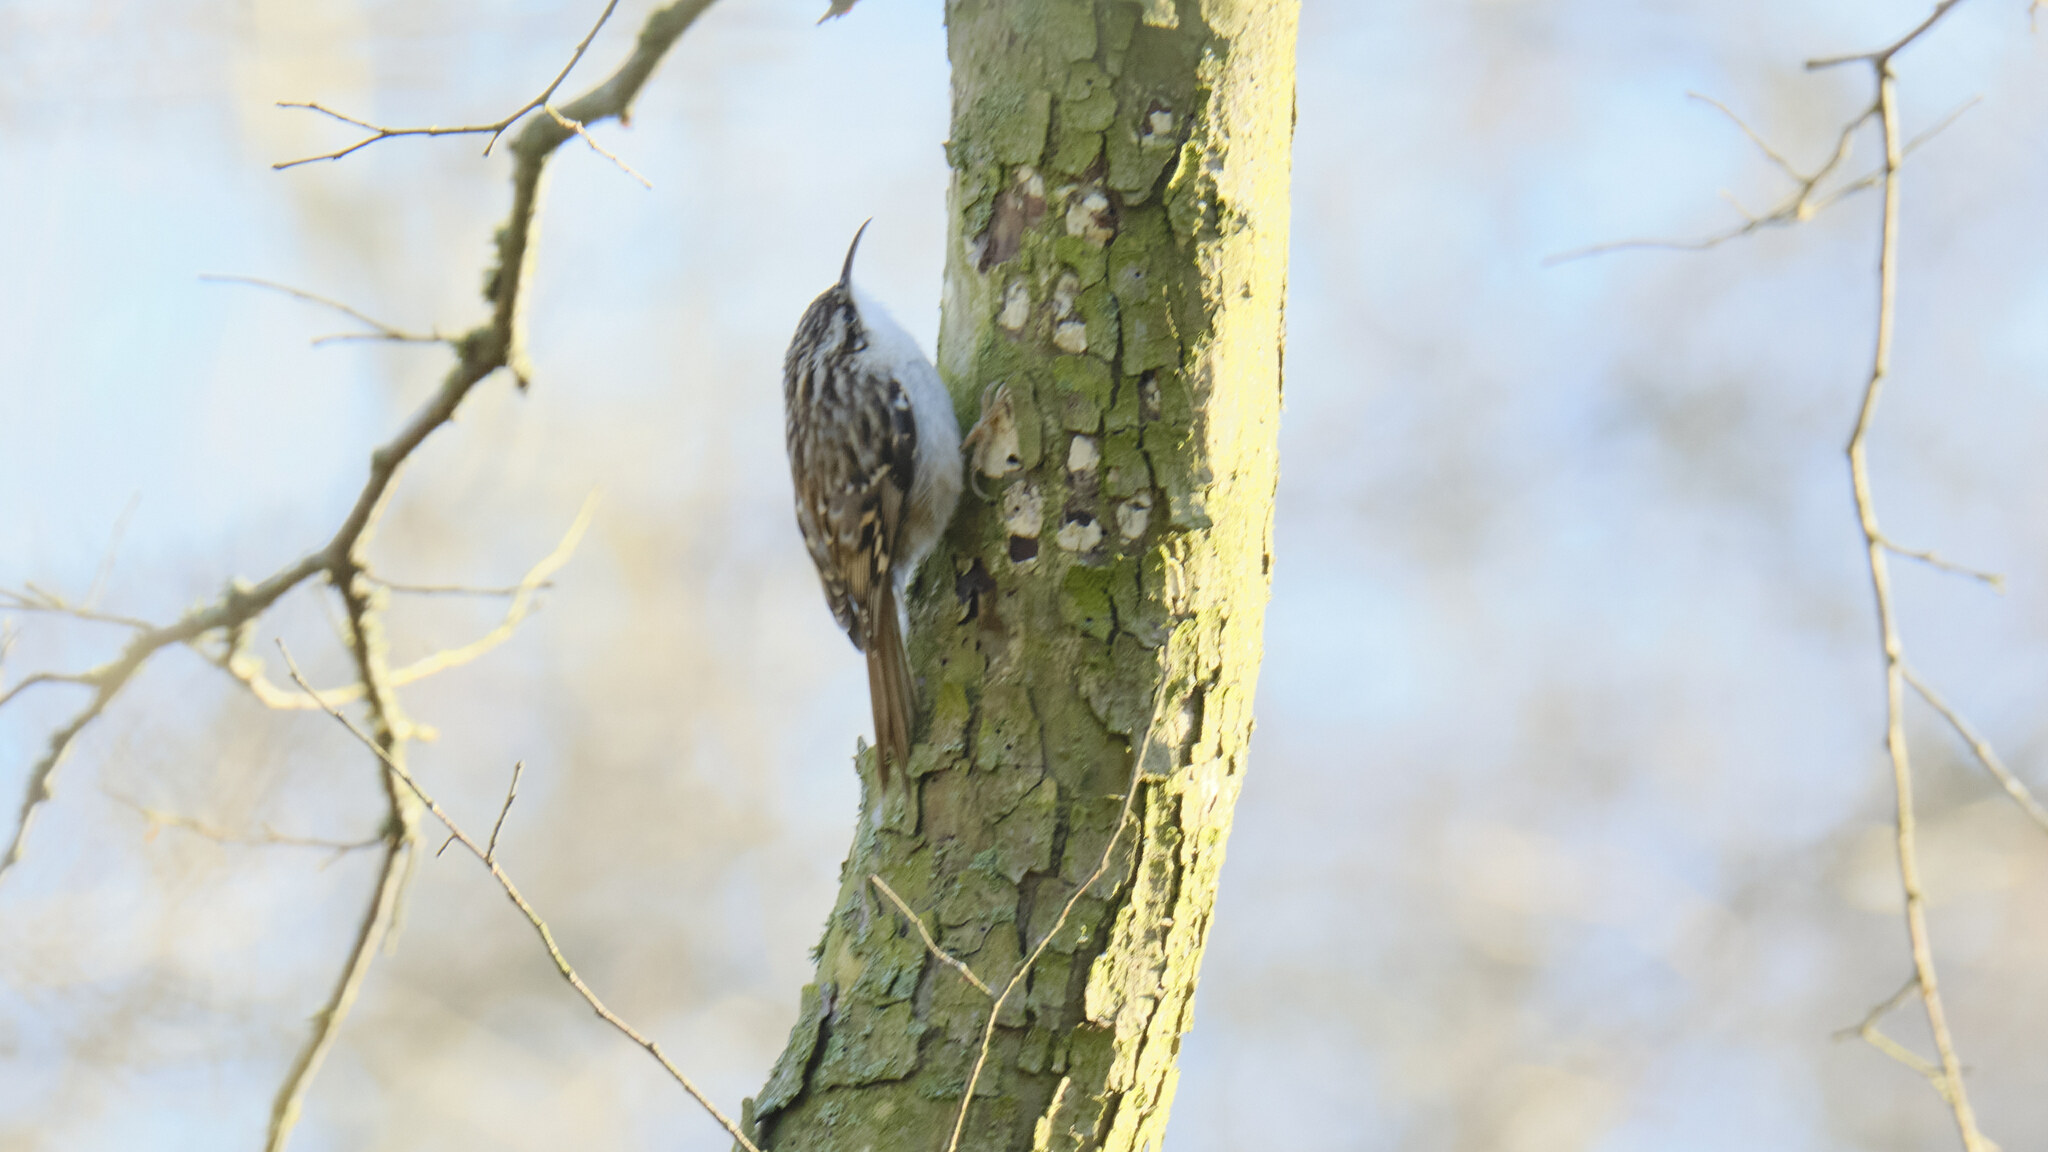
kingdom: Animalia
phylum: Chordata
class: Aves
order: Passeriformes
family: Certhiidae
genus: Certhia
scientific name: Certhia brachydactyla
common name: Short-toed treecreeper
